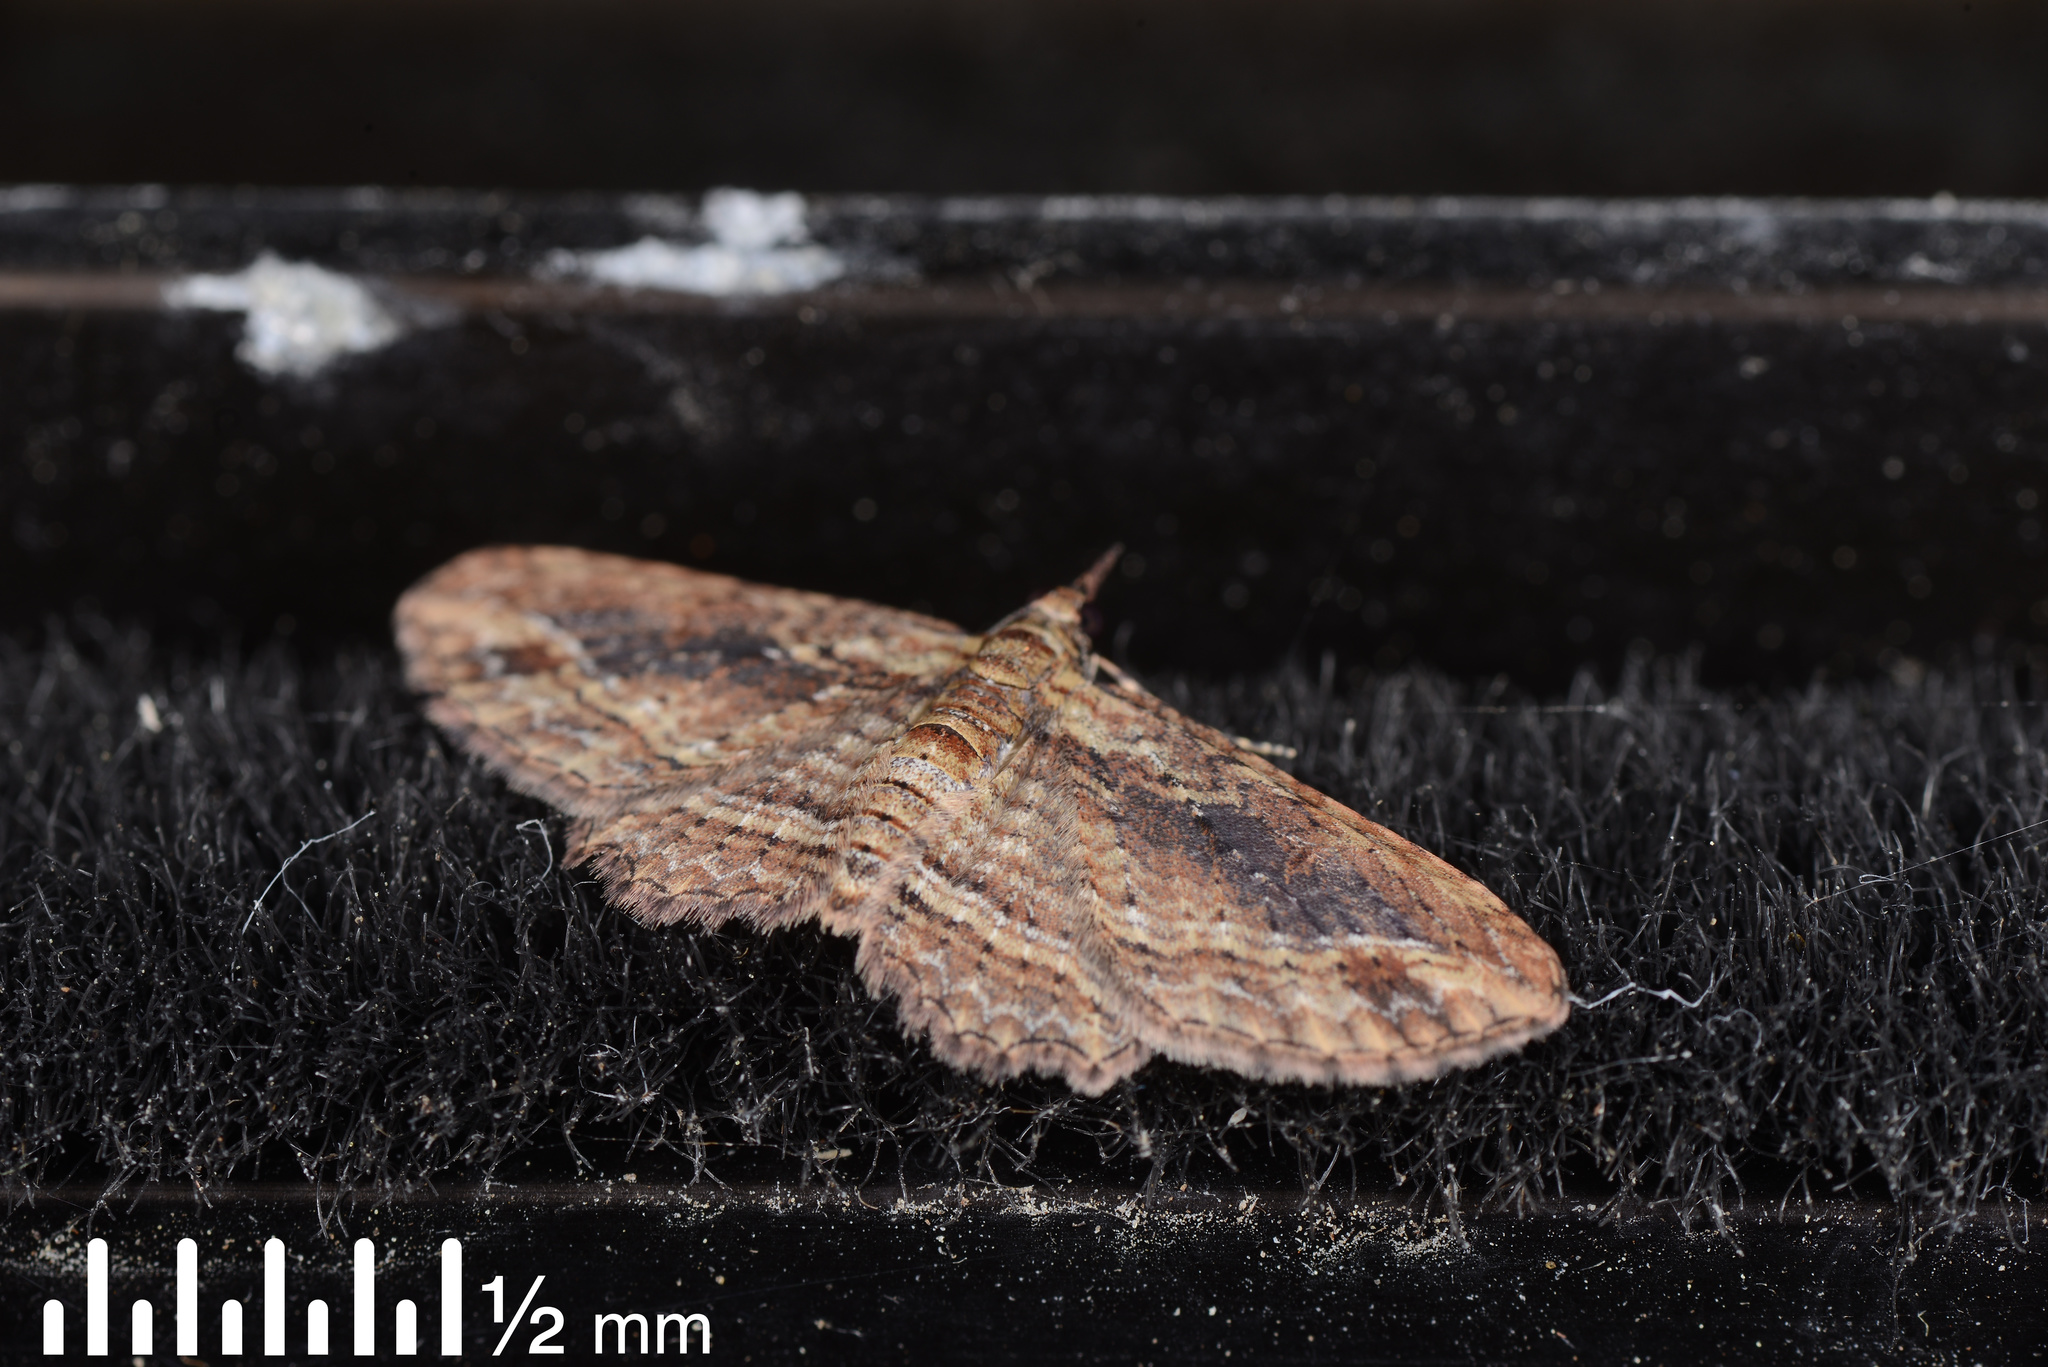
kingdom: Animalia
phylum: Arthropoda
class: Insecta
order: Lepidoptera
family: Geometridae
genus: Chloroclystis
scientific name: Chloroclystis filata
